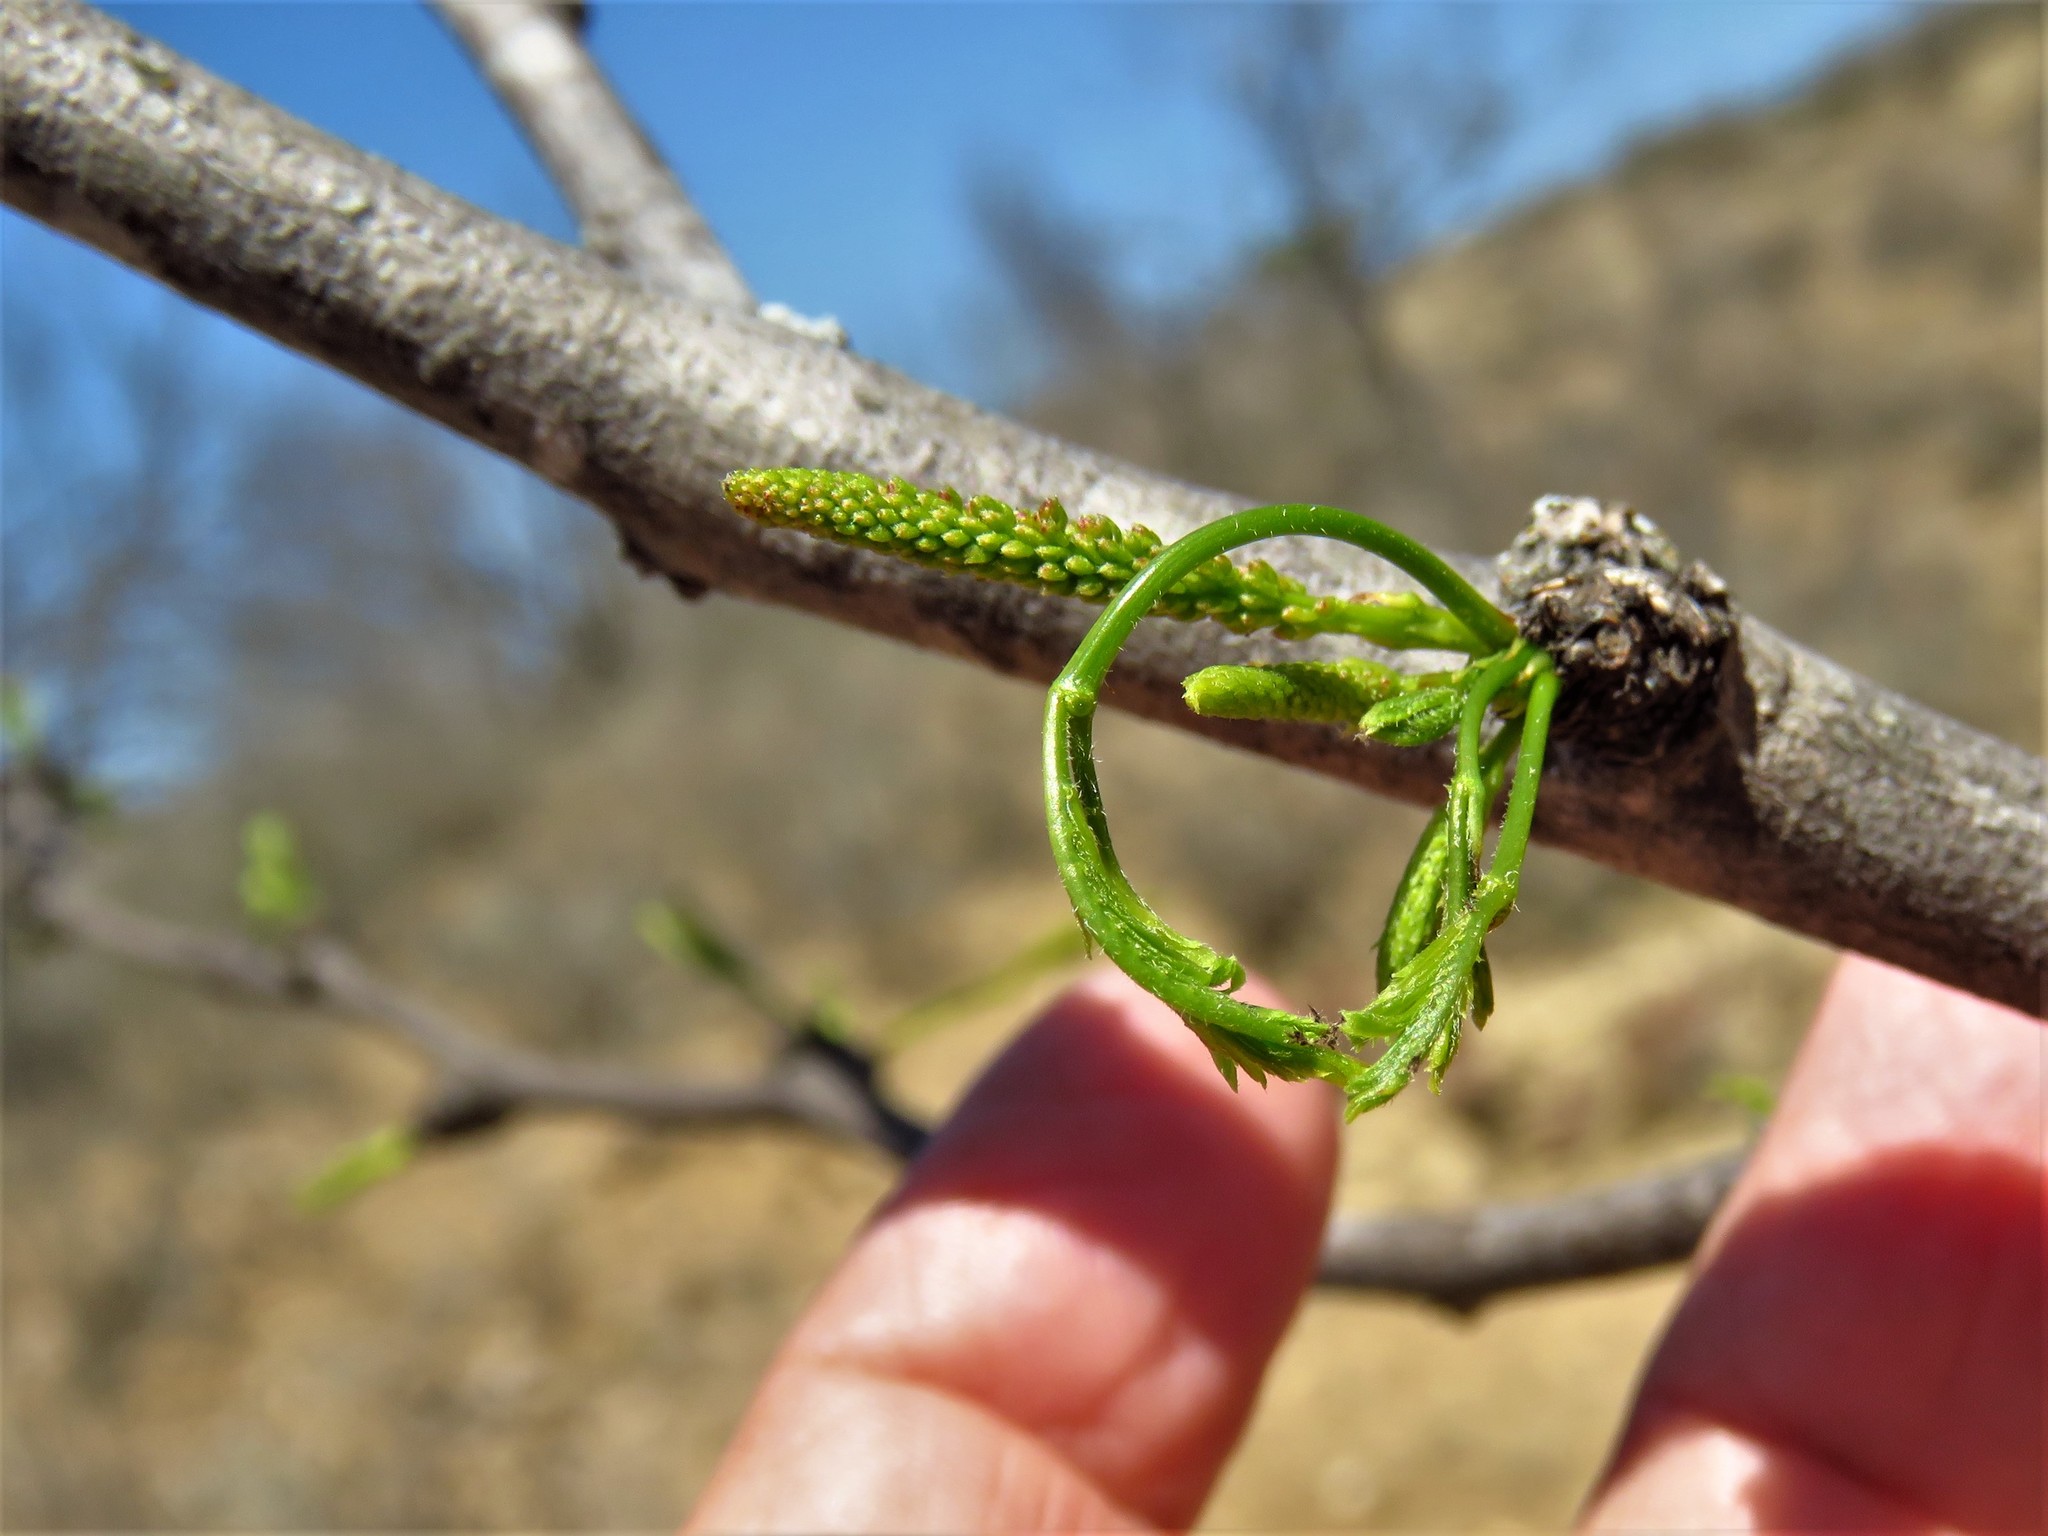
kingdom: Plantae
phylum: Tracheophyta
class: Magnoliopsida
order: Fabales
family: Fabaceae
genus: Prosopis
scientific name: Prosopis glandulosa
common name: Honey mesquite
